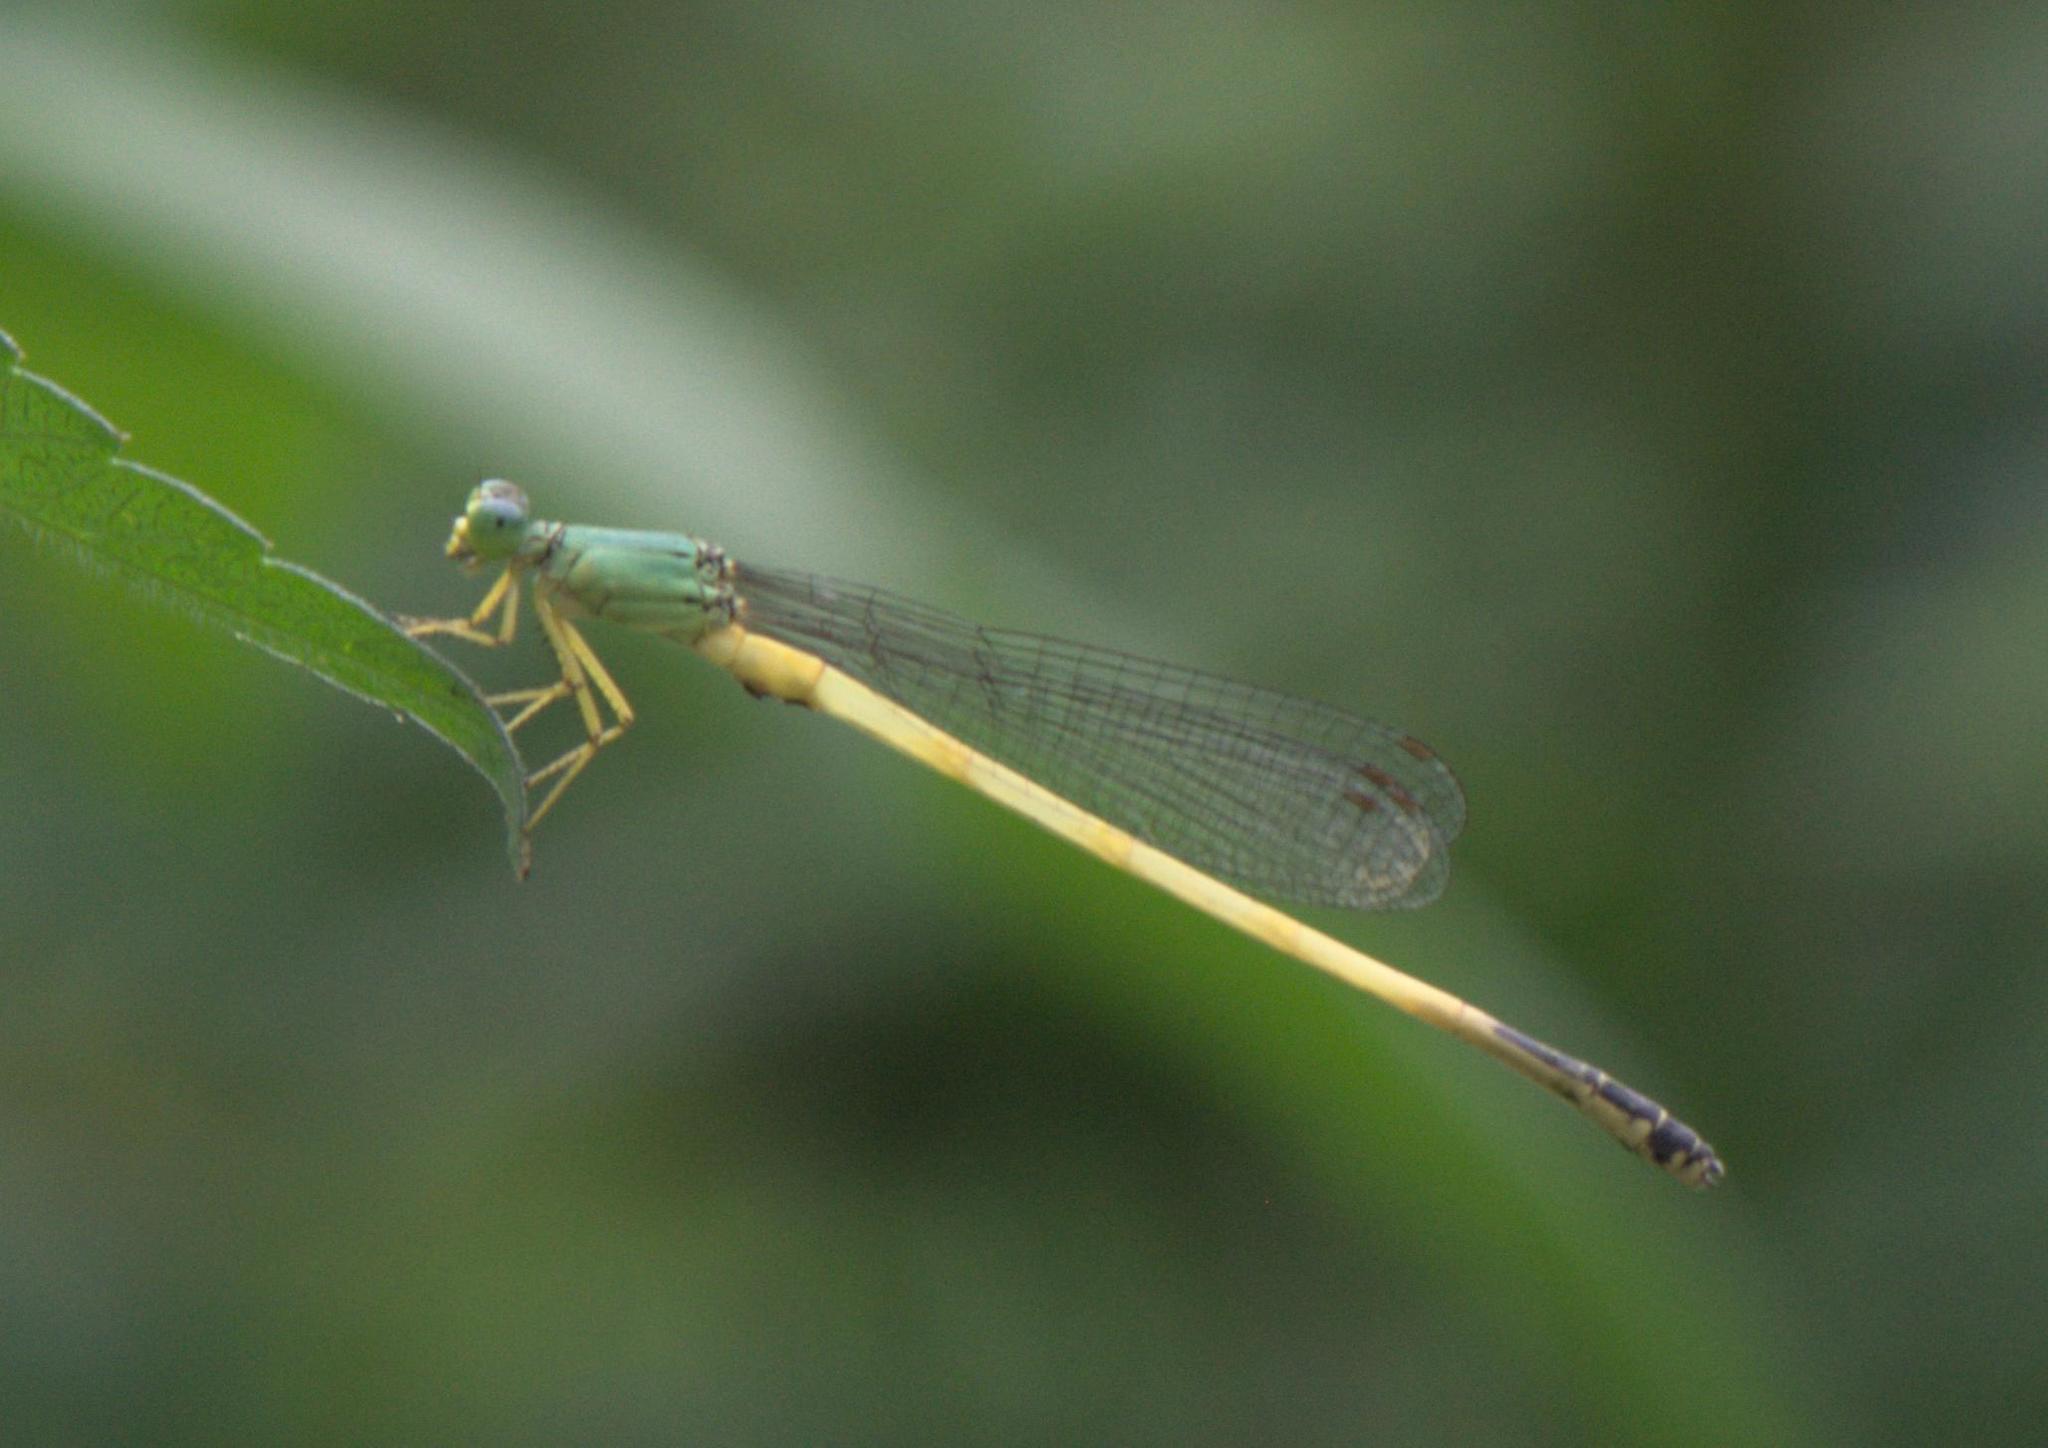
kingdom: Animalia
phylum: Arthropoda
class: Insecta
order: Odonata
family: Coenagrionidae
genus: Ceriagrion
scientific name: Ceriagrion fallax
